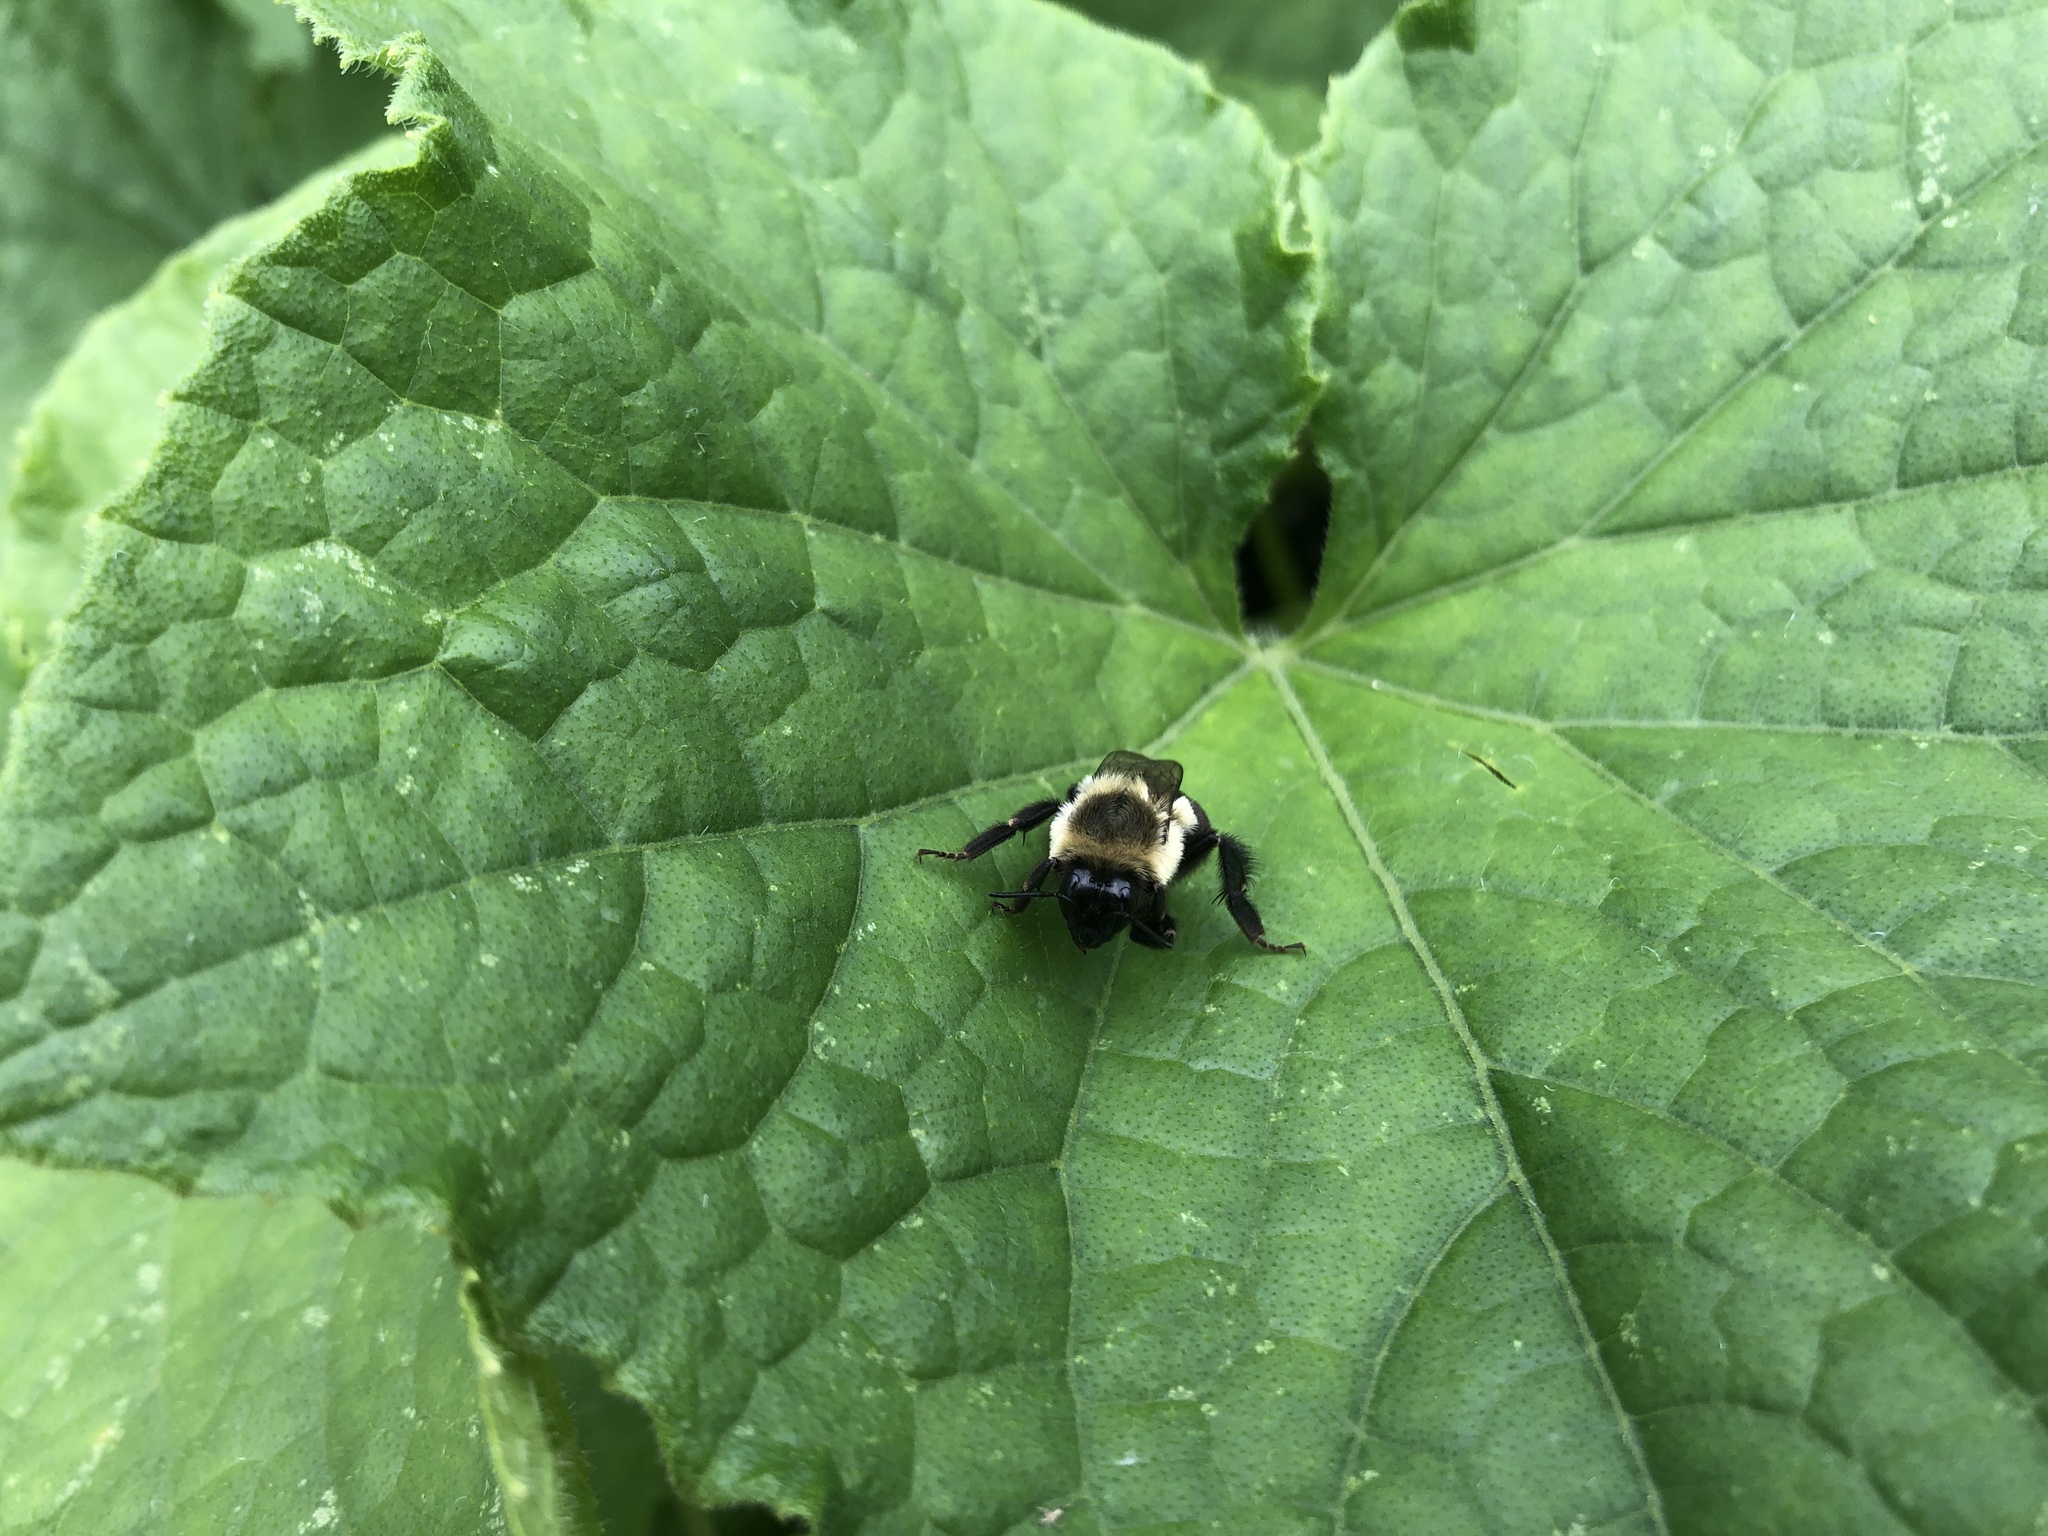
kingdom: Animalia
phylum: Arthropoda
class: Insecta
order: Hymenoptera
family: Apidae
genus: Bombus
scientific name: Bombus impatiens
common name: Common eastern bumble bee
